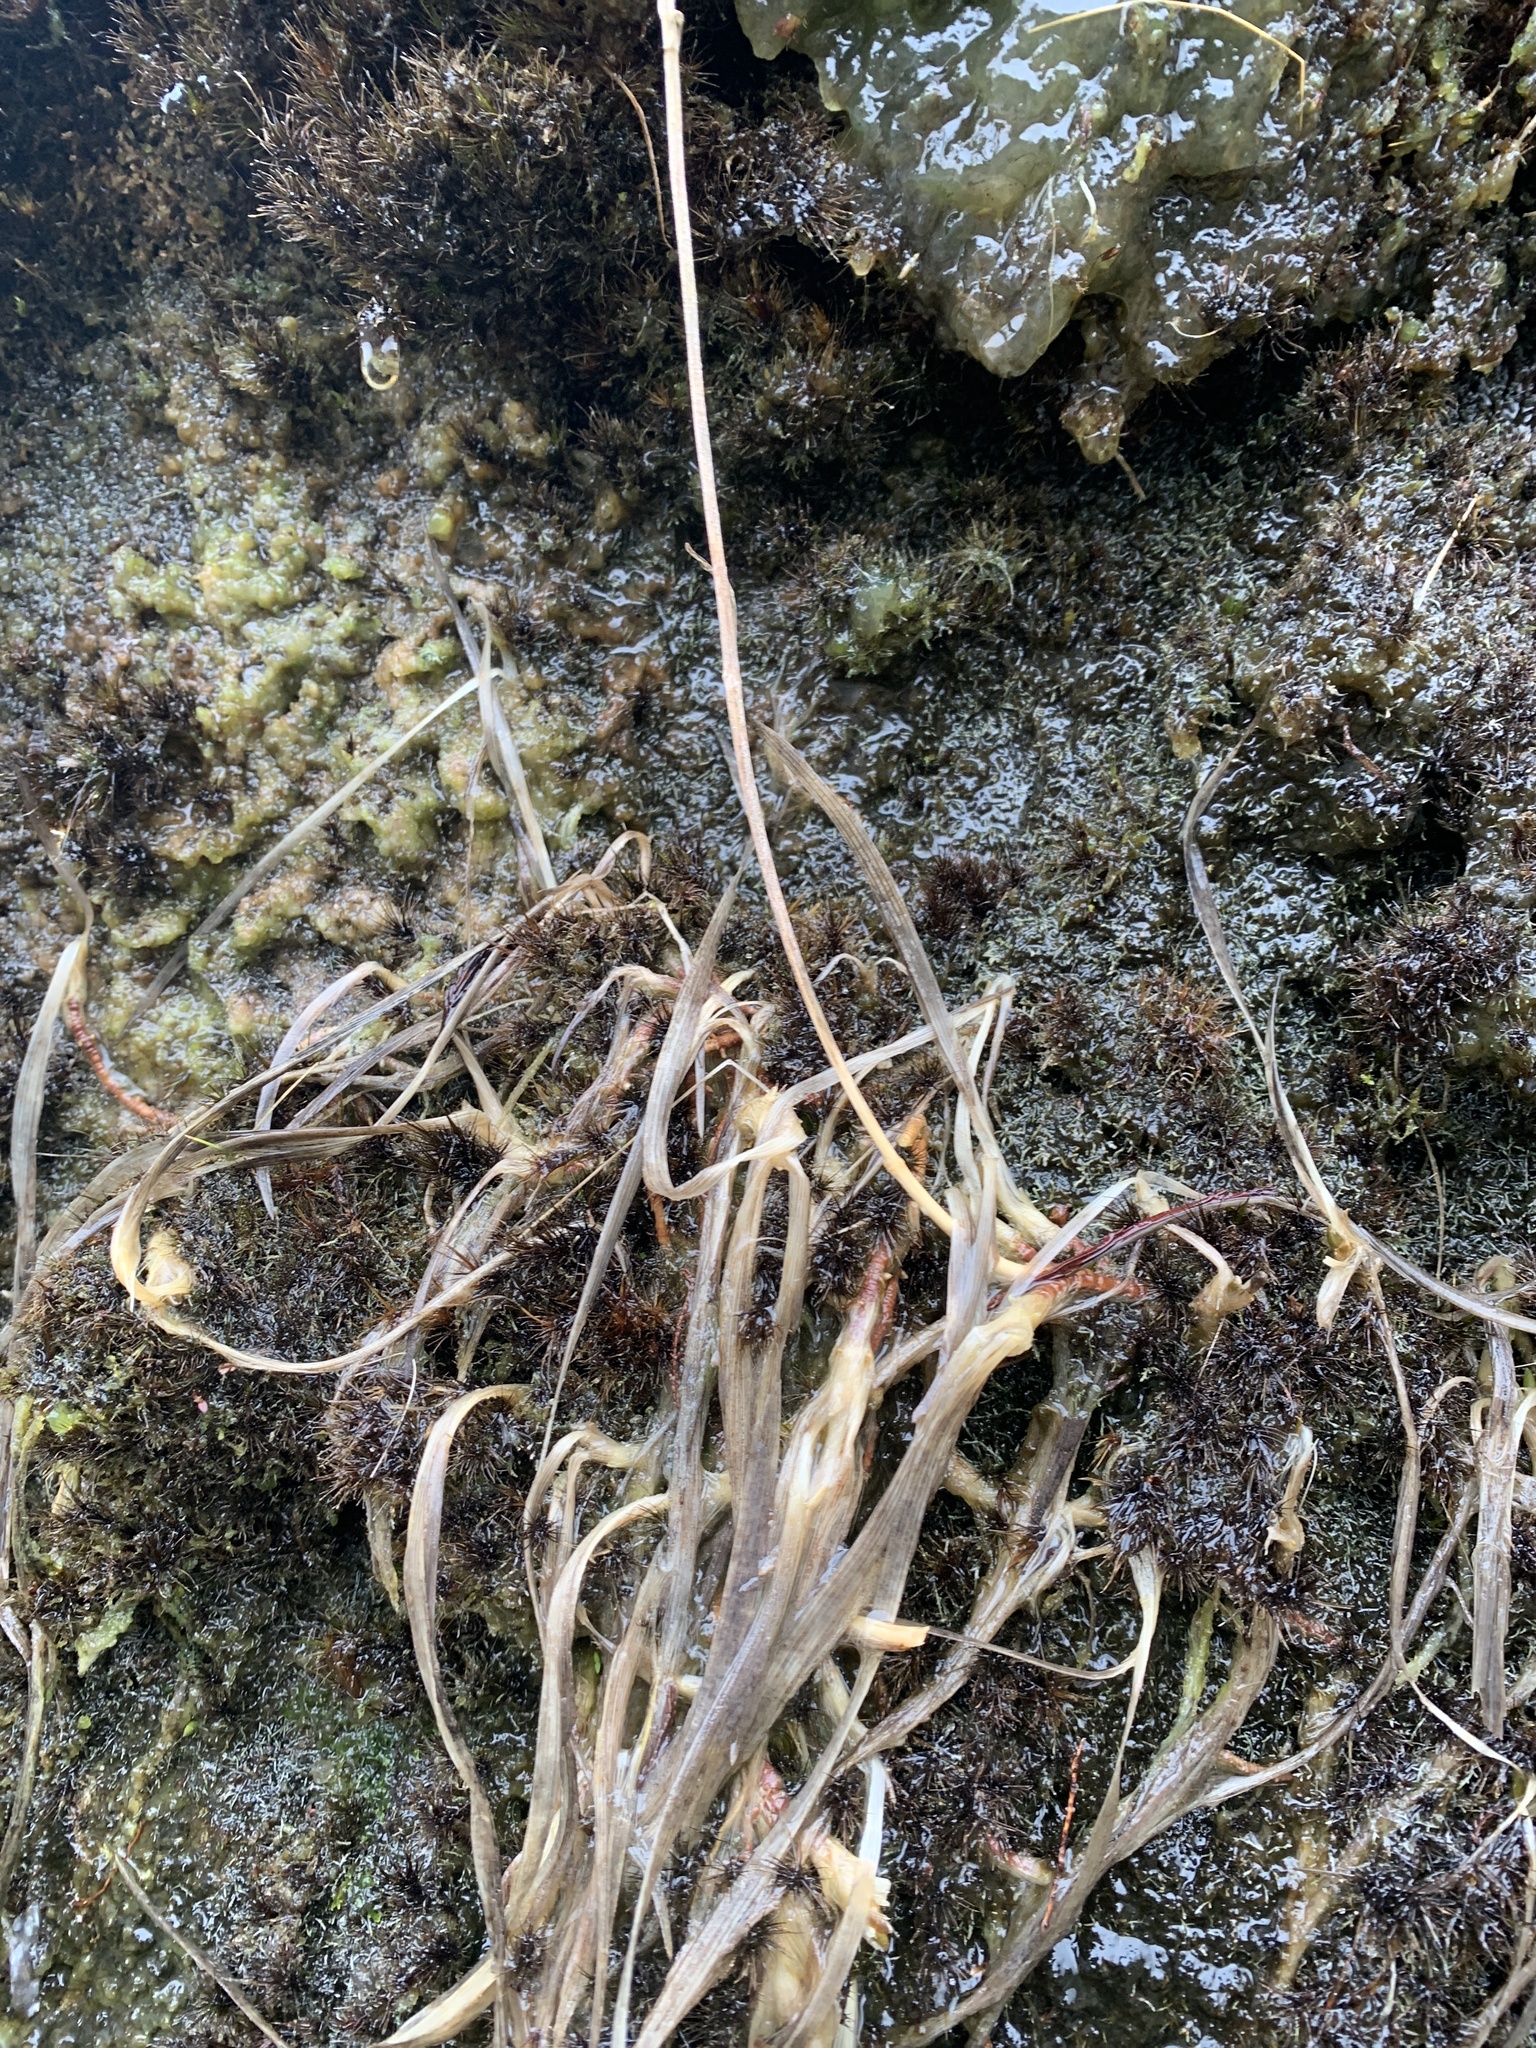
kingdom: Plantae
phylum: Tracheophyta
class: Liliopsida
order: Dioscoreales
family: Nartheciaceae
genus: Narthecium
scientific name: Narthecium ossifragum
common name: Bog asphodel
